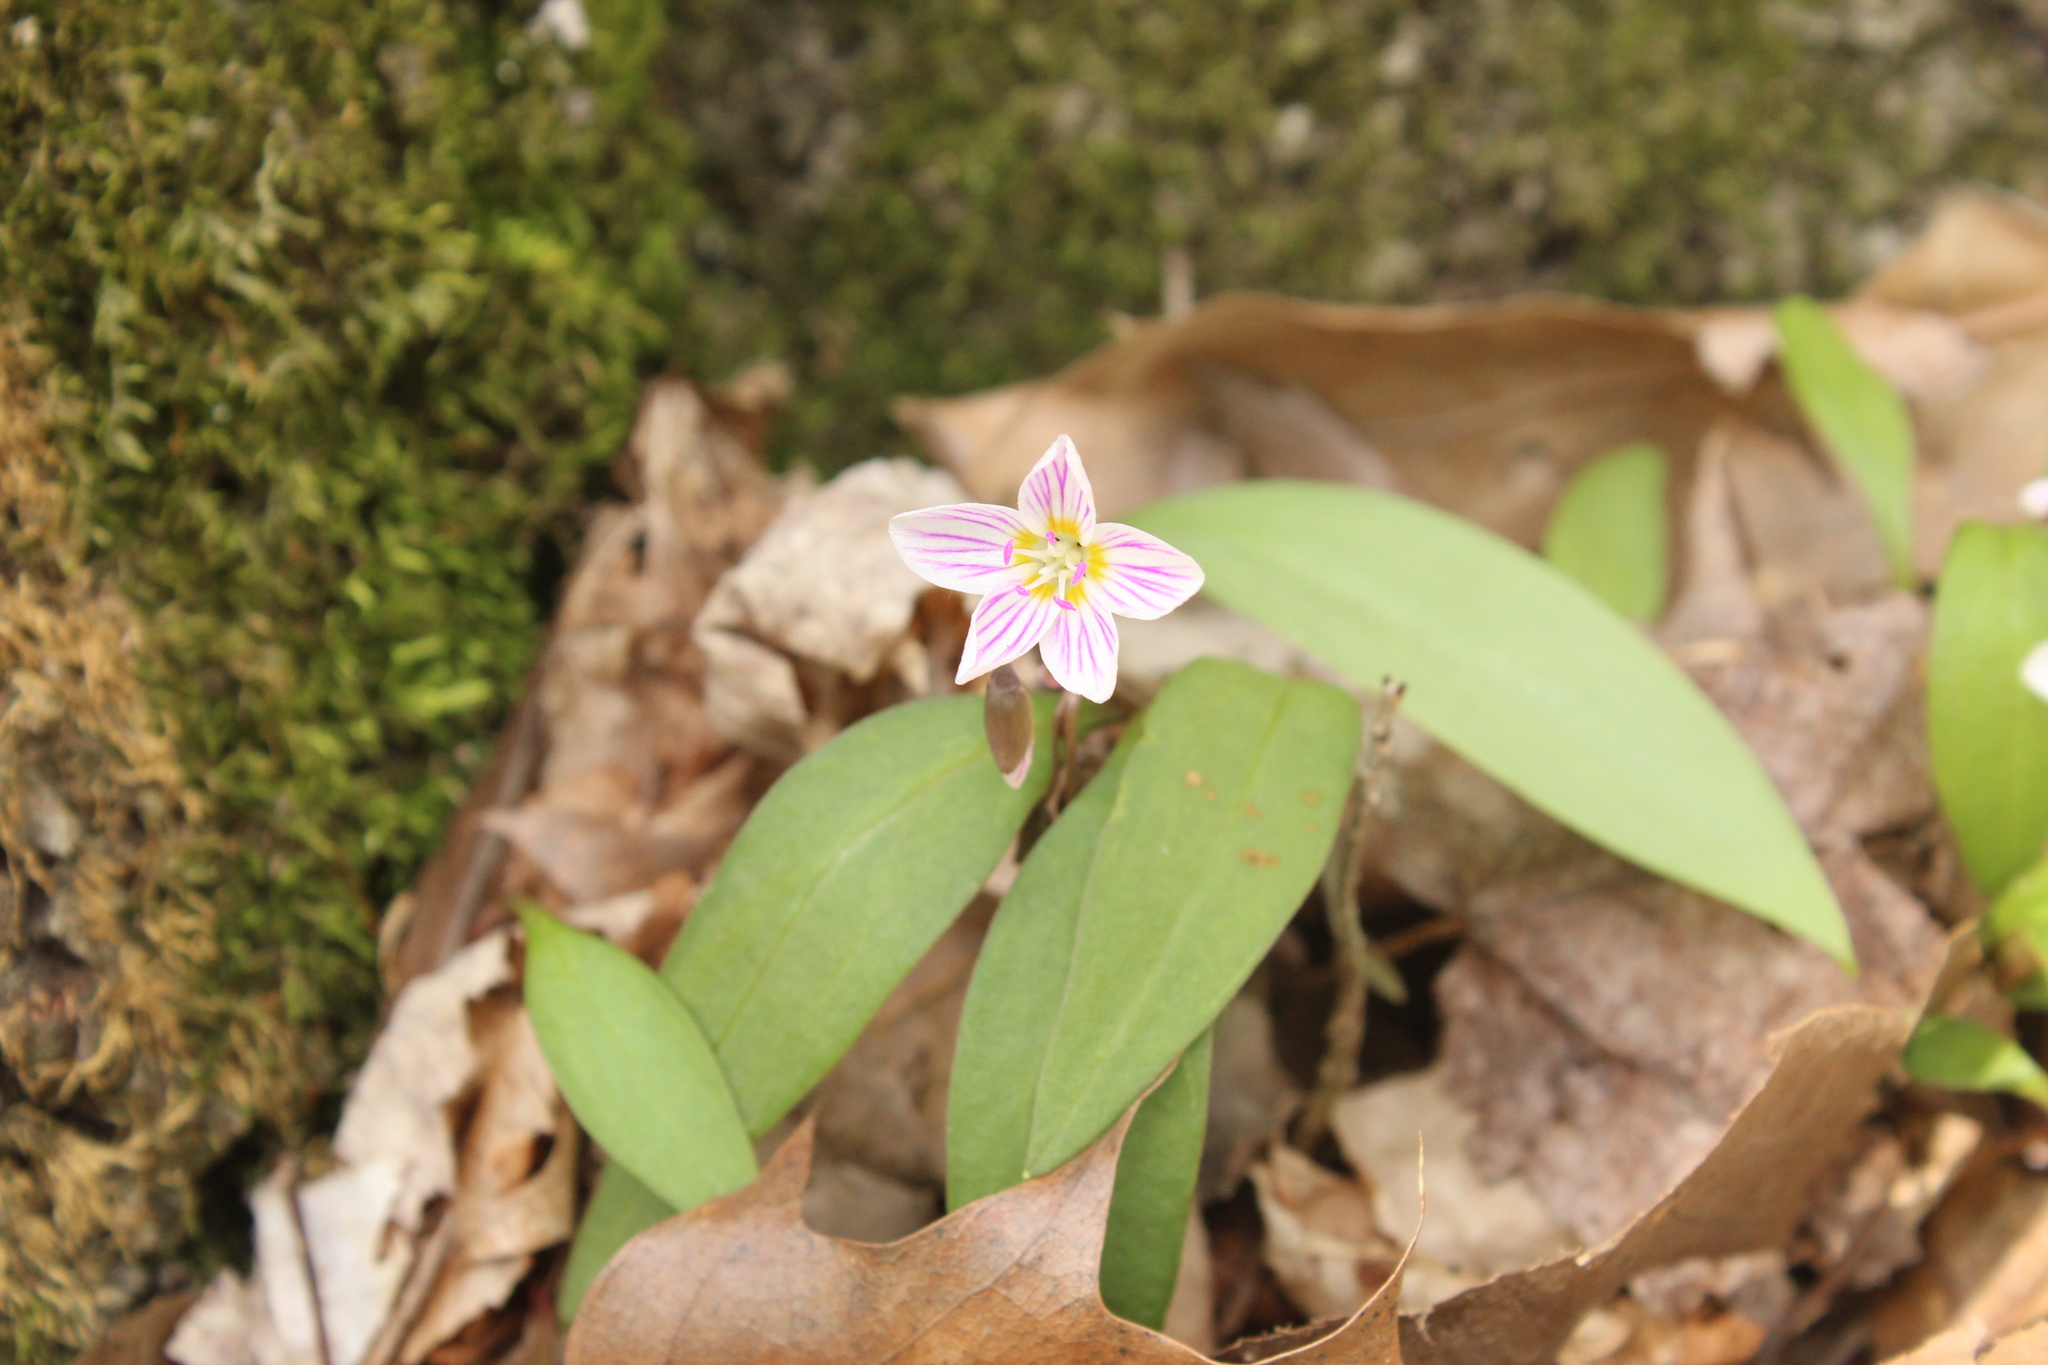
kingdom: Plantae
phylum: Tracheophyta
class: Magnoliopsida
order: Caryophyllales
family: Montiaceae
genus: Claytonia
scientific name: Claytonia caroliniana
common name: Carolina spring beauty
